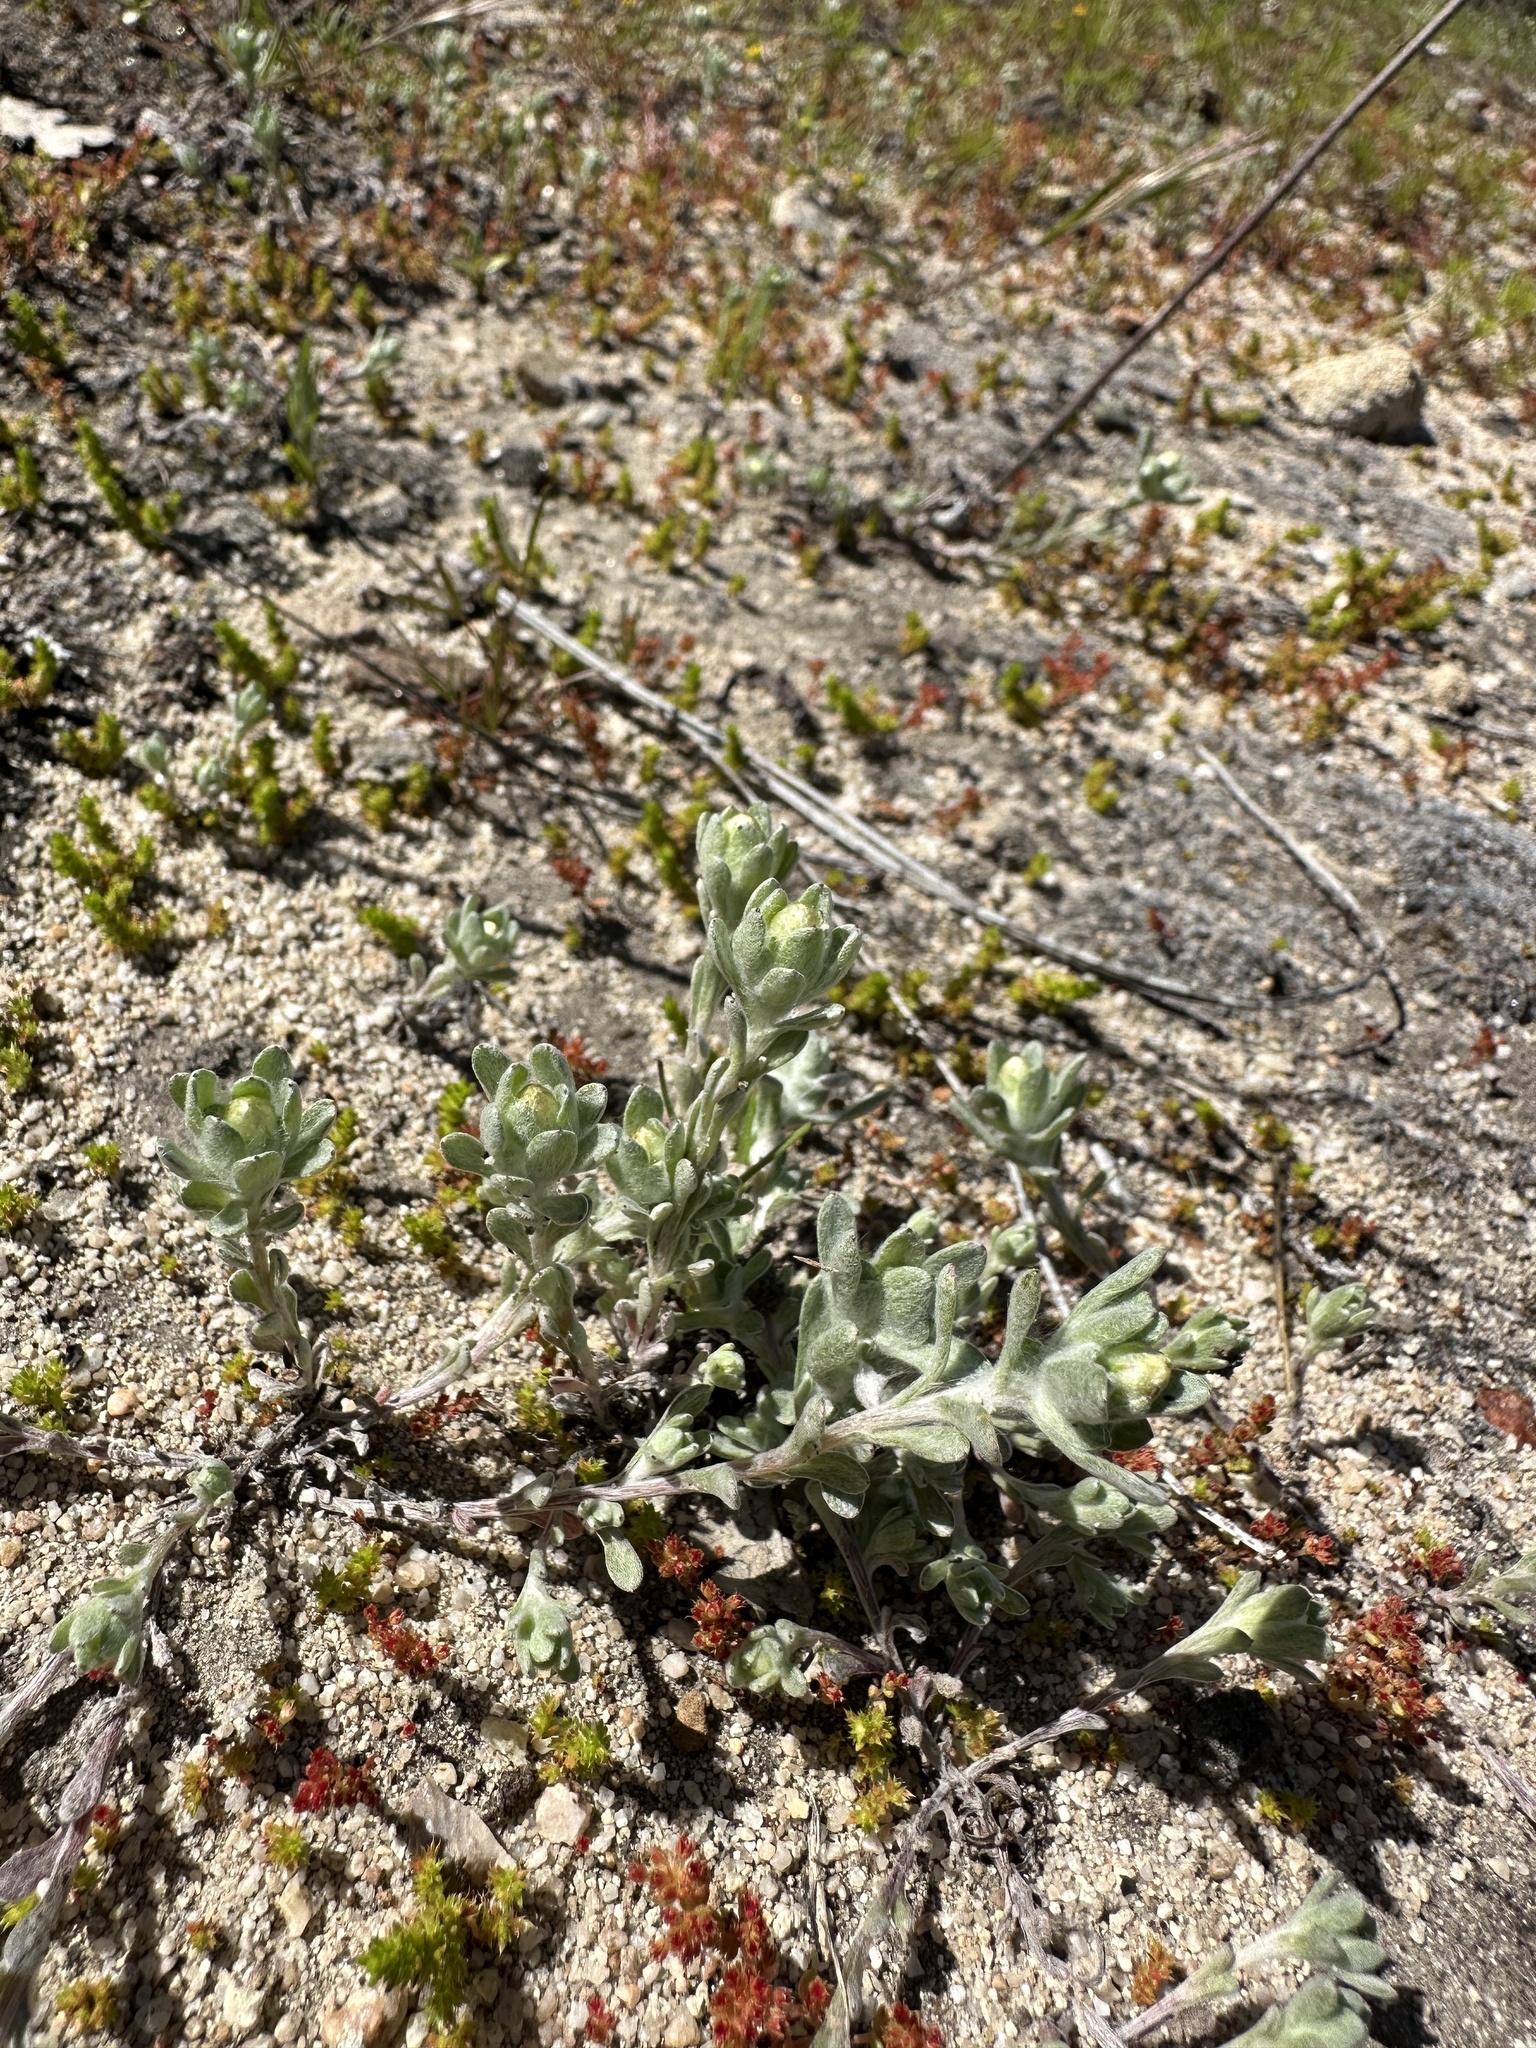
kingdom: Plantae
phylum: Tracheophyta
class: Magnoliopsida
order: Asterales
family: Asteraceae
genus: Stylocline
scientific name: Stylocline gnaphaloides
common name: Everlasting nest-straw
